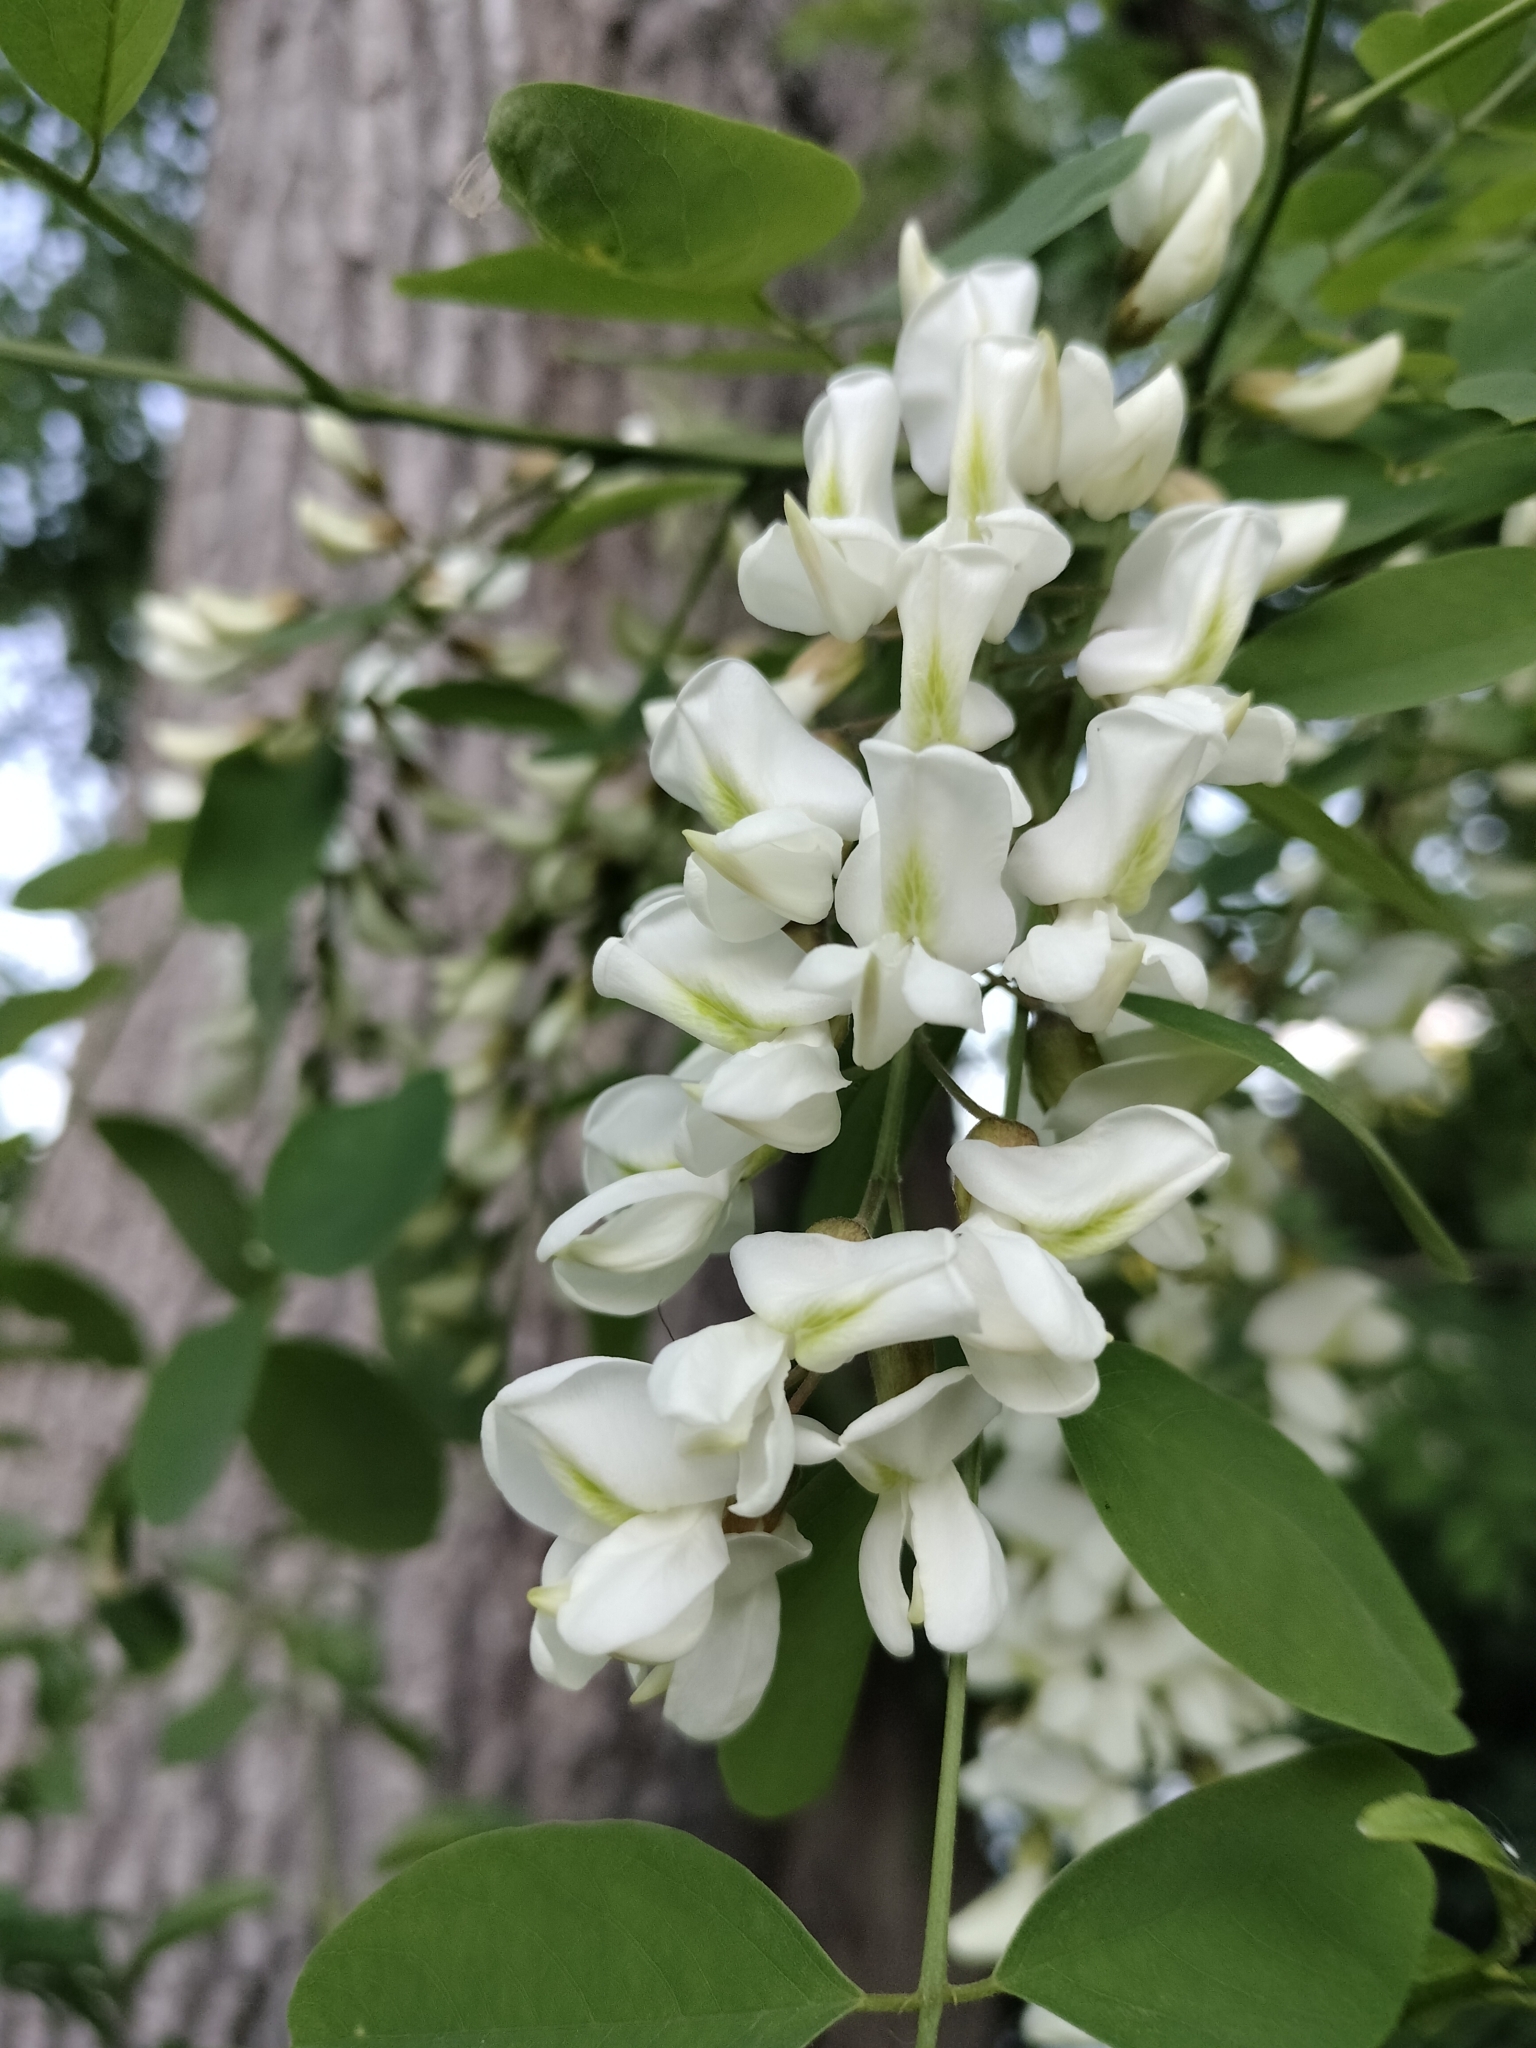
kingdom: Plantae
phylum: Tracheophyta
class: Magnoliopsida
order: Fabales
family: Fabaceae
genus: Robinia
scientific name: Robinia pseudoacacia
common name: Black locust
